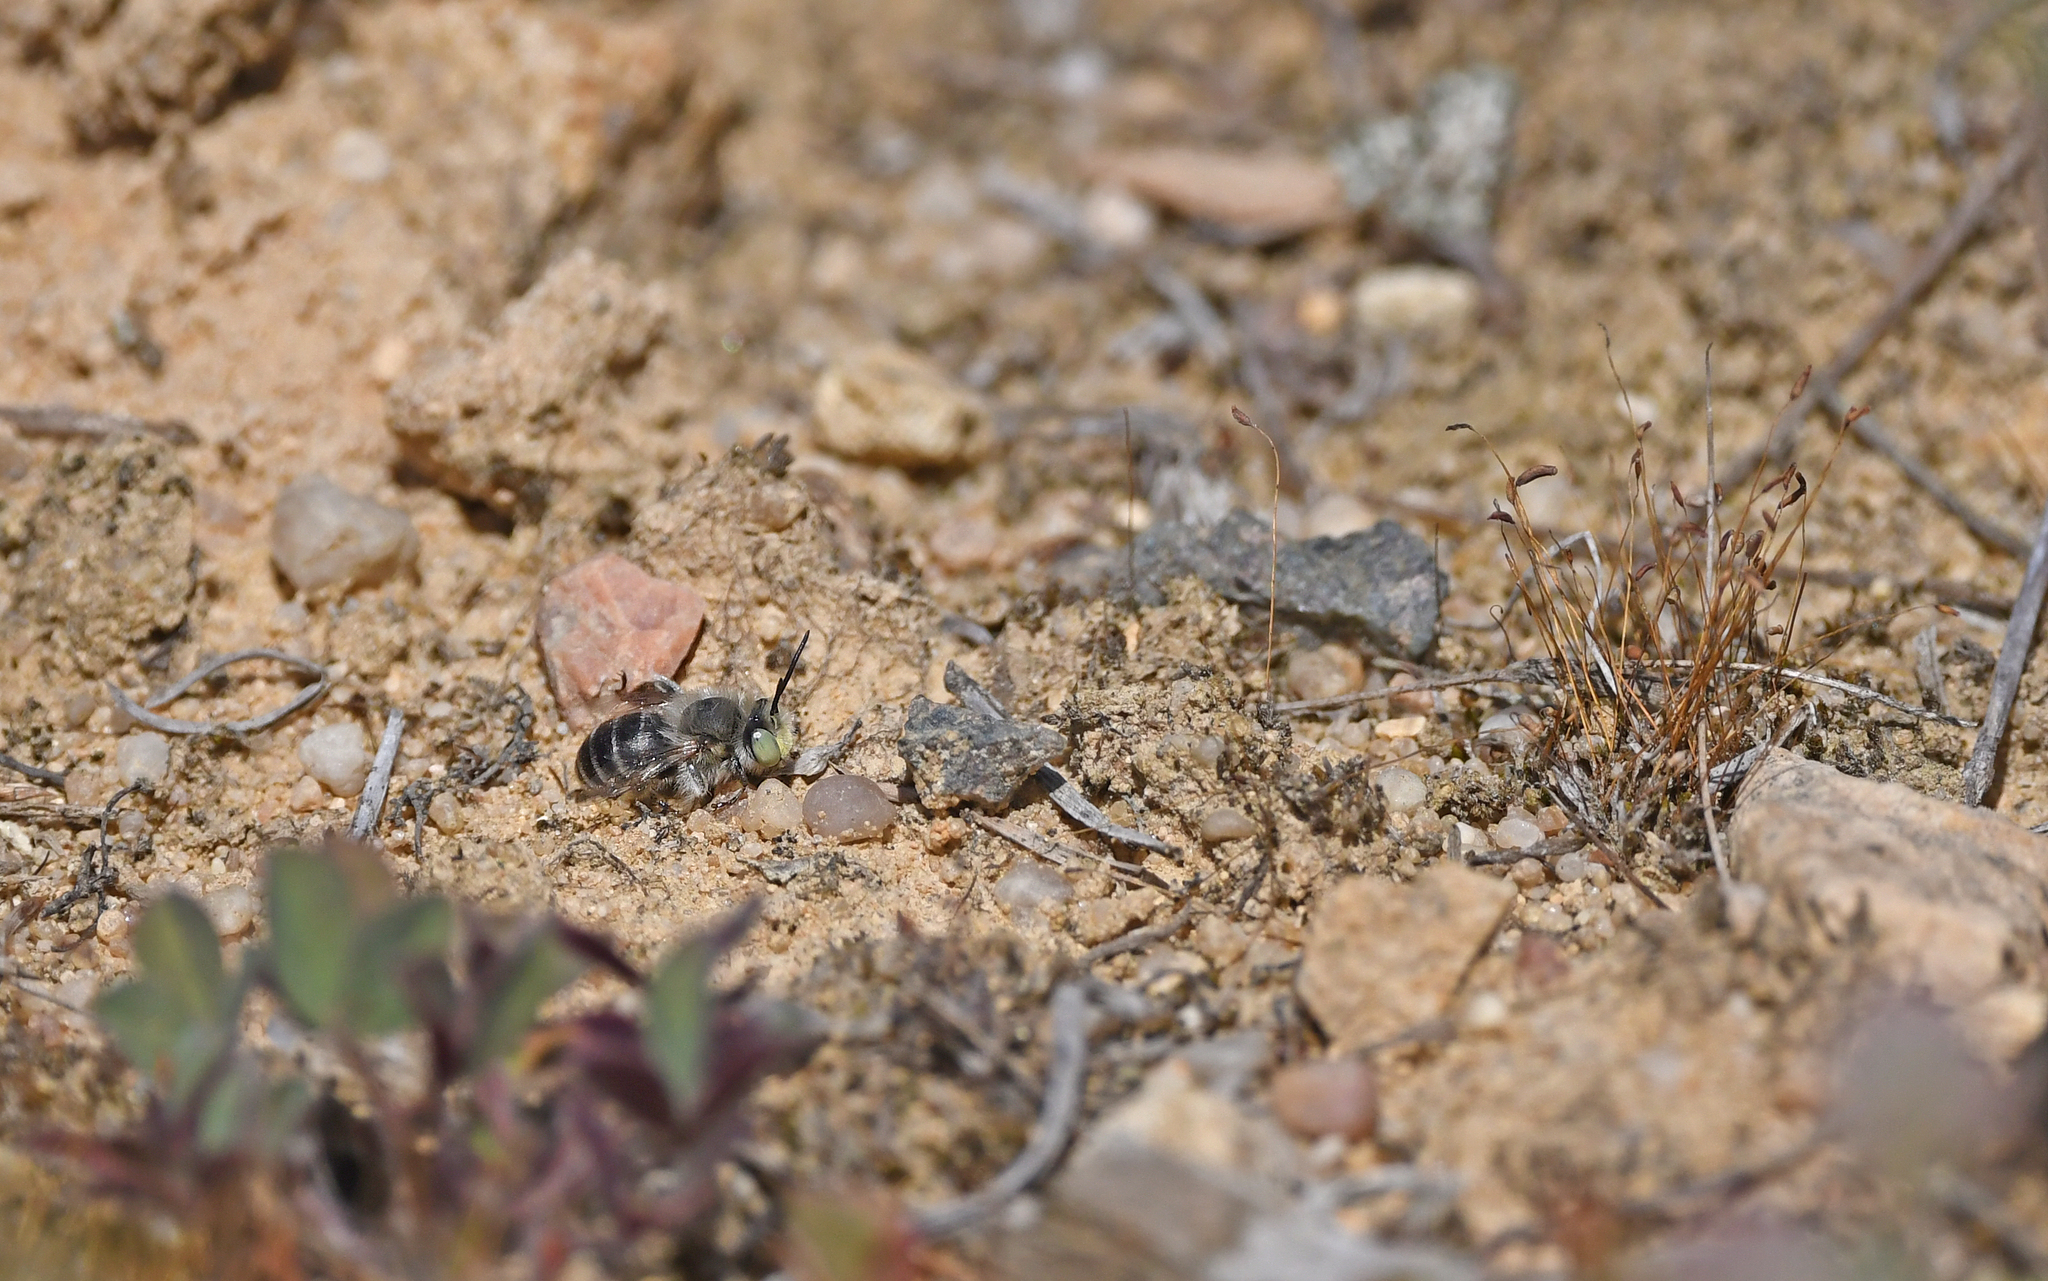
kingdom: Animalia
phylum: Arthropoda
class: Insecta
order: Hymenoptera
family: Apidae
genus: Anthophora
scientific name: Anthophora bimaculata
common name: Green-eyed flower bee
